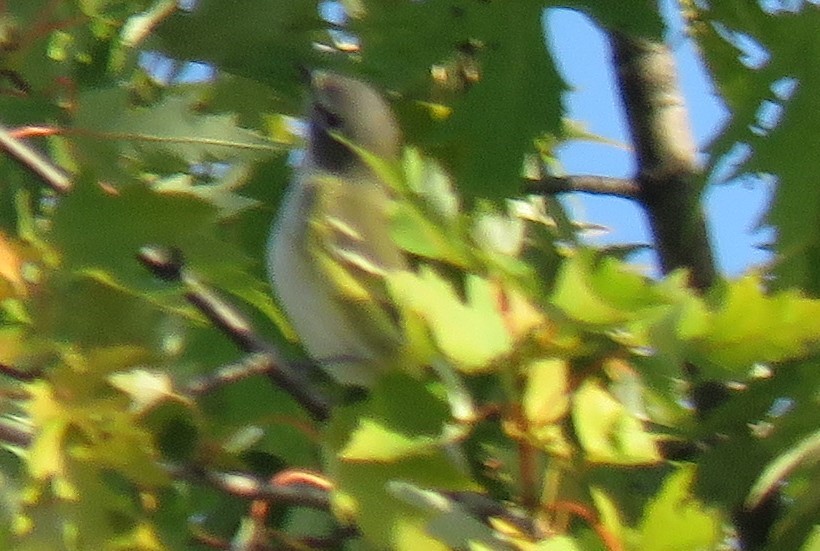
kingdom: Animalia
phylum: Chordata
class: Aves
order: Passeriformes
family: Vireonidae
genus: Vireo
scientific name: Vireo solitarius
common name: Blue-headed vireo
